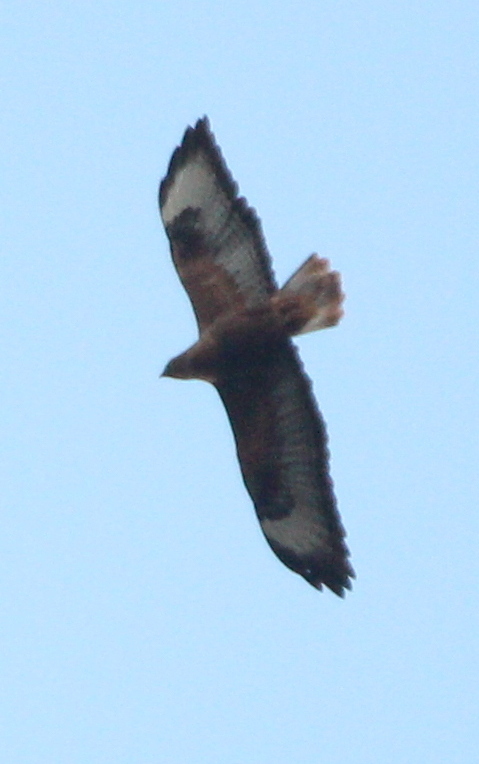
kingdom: Animalia
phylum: Chordata
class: Aves
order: Accipitriformes
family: Accipitridae
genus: Buteo
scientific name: Buteo rufinus
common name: Long-legged buzzard
